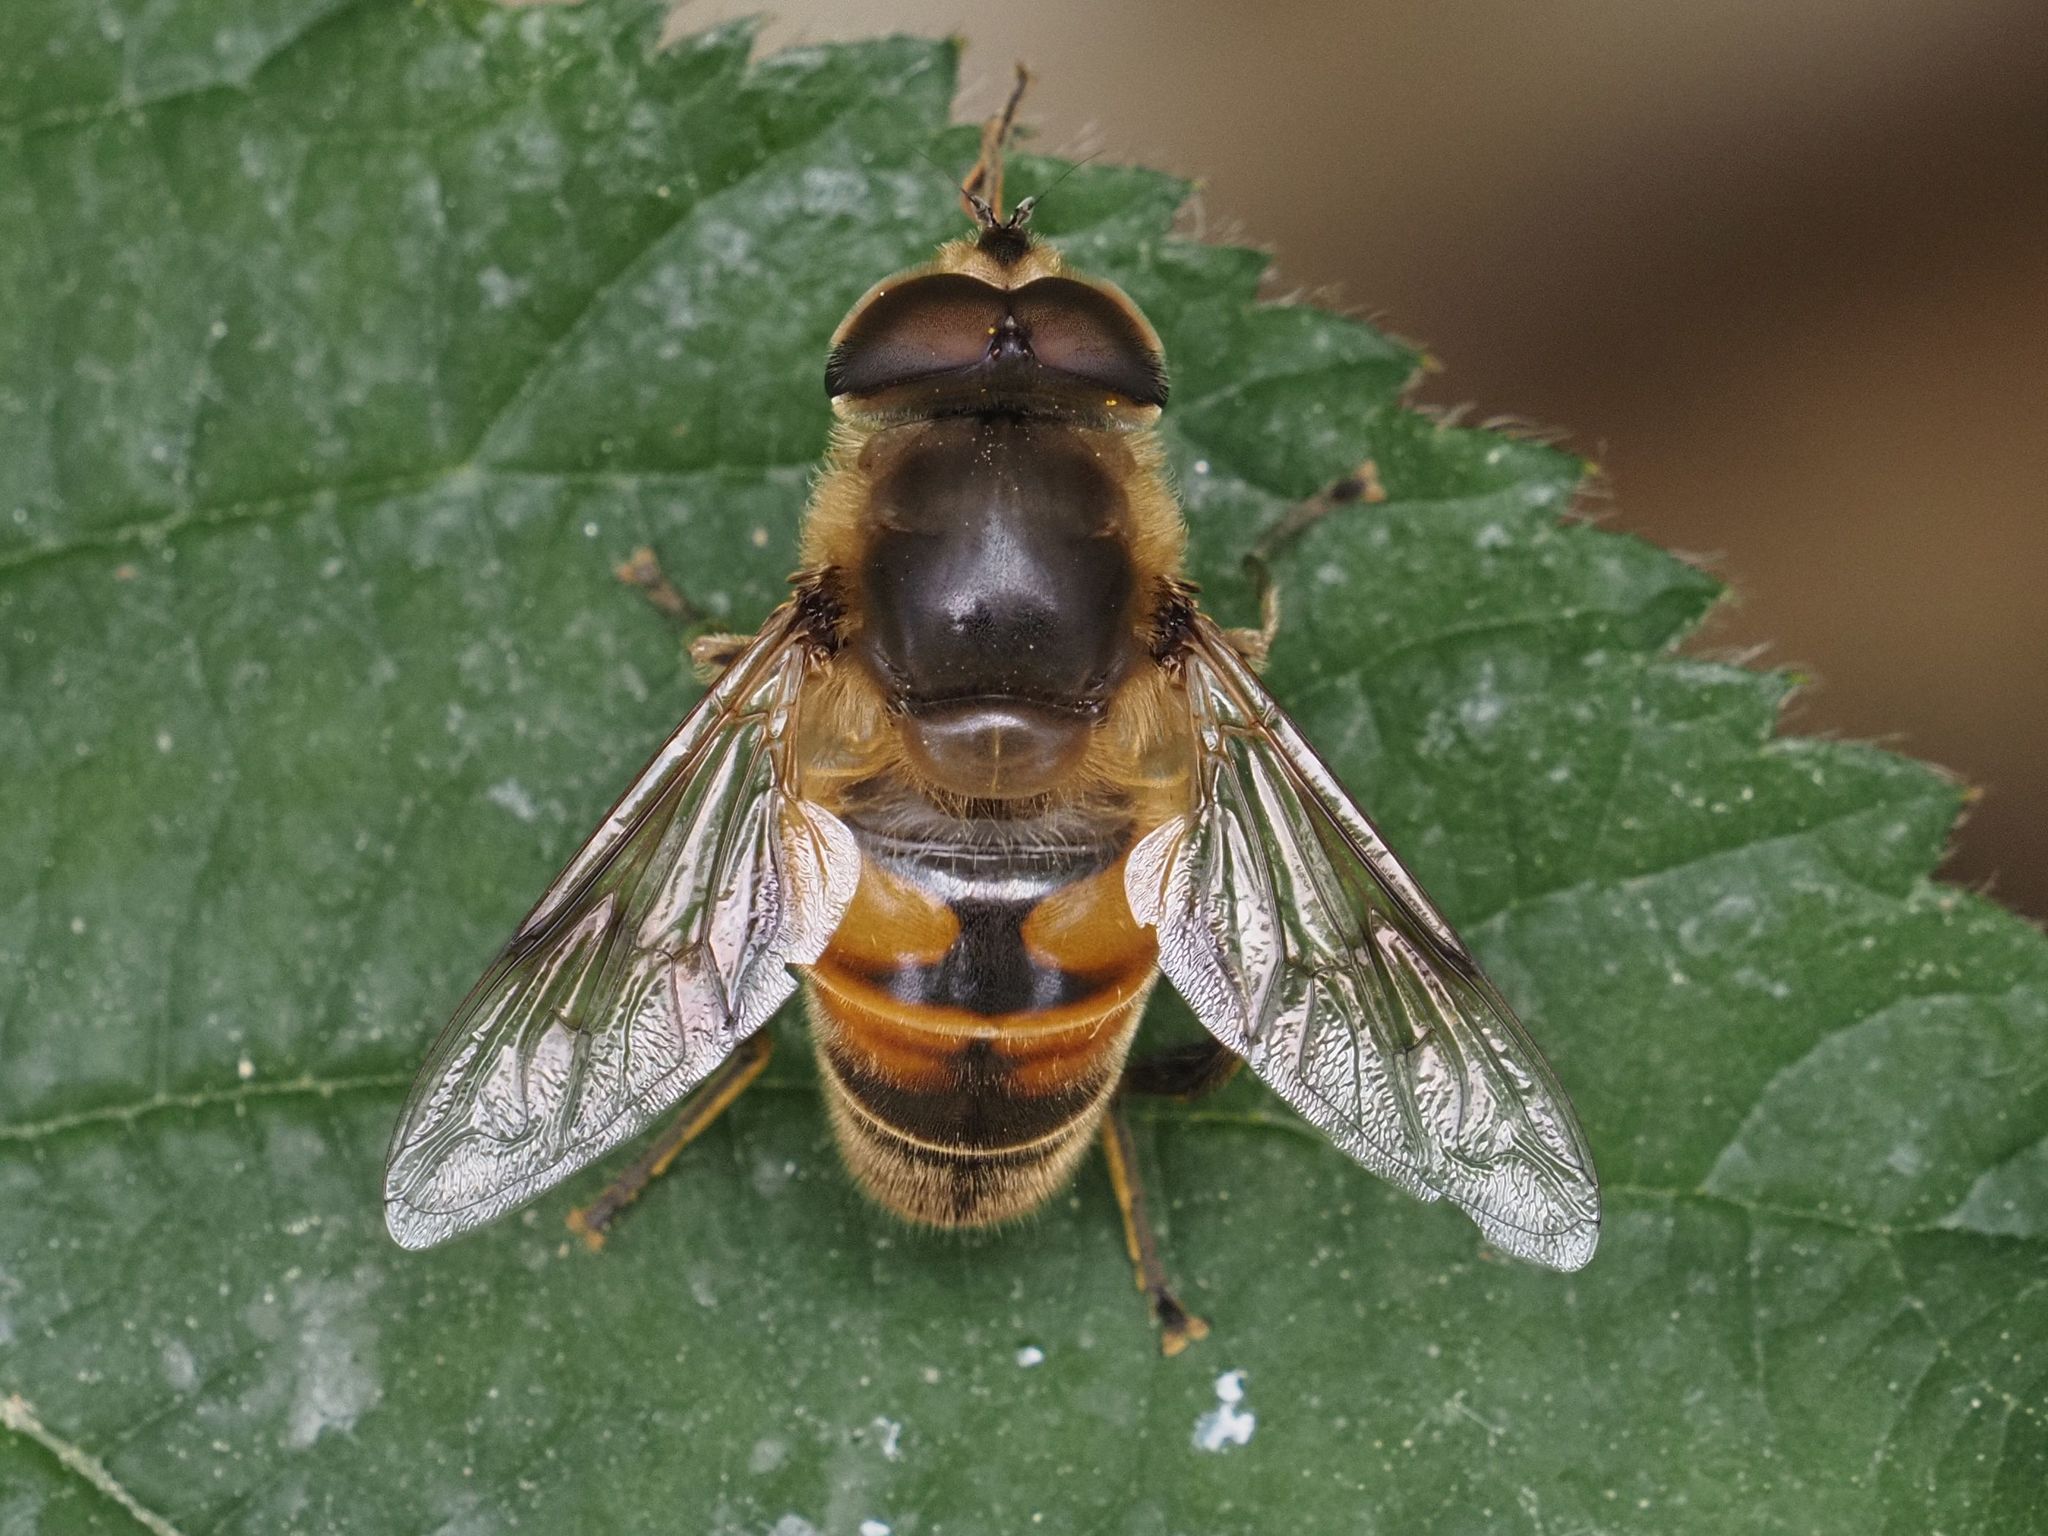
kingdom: Animalia
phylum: Arthropoda
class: Insecta
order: Diptera
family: Syrphidae
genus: Eristalis
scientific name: Eristalis tenax
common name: Drone fly
